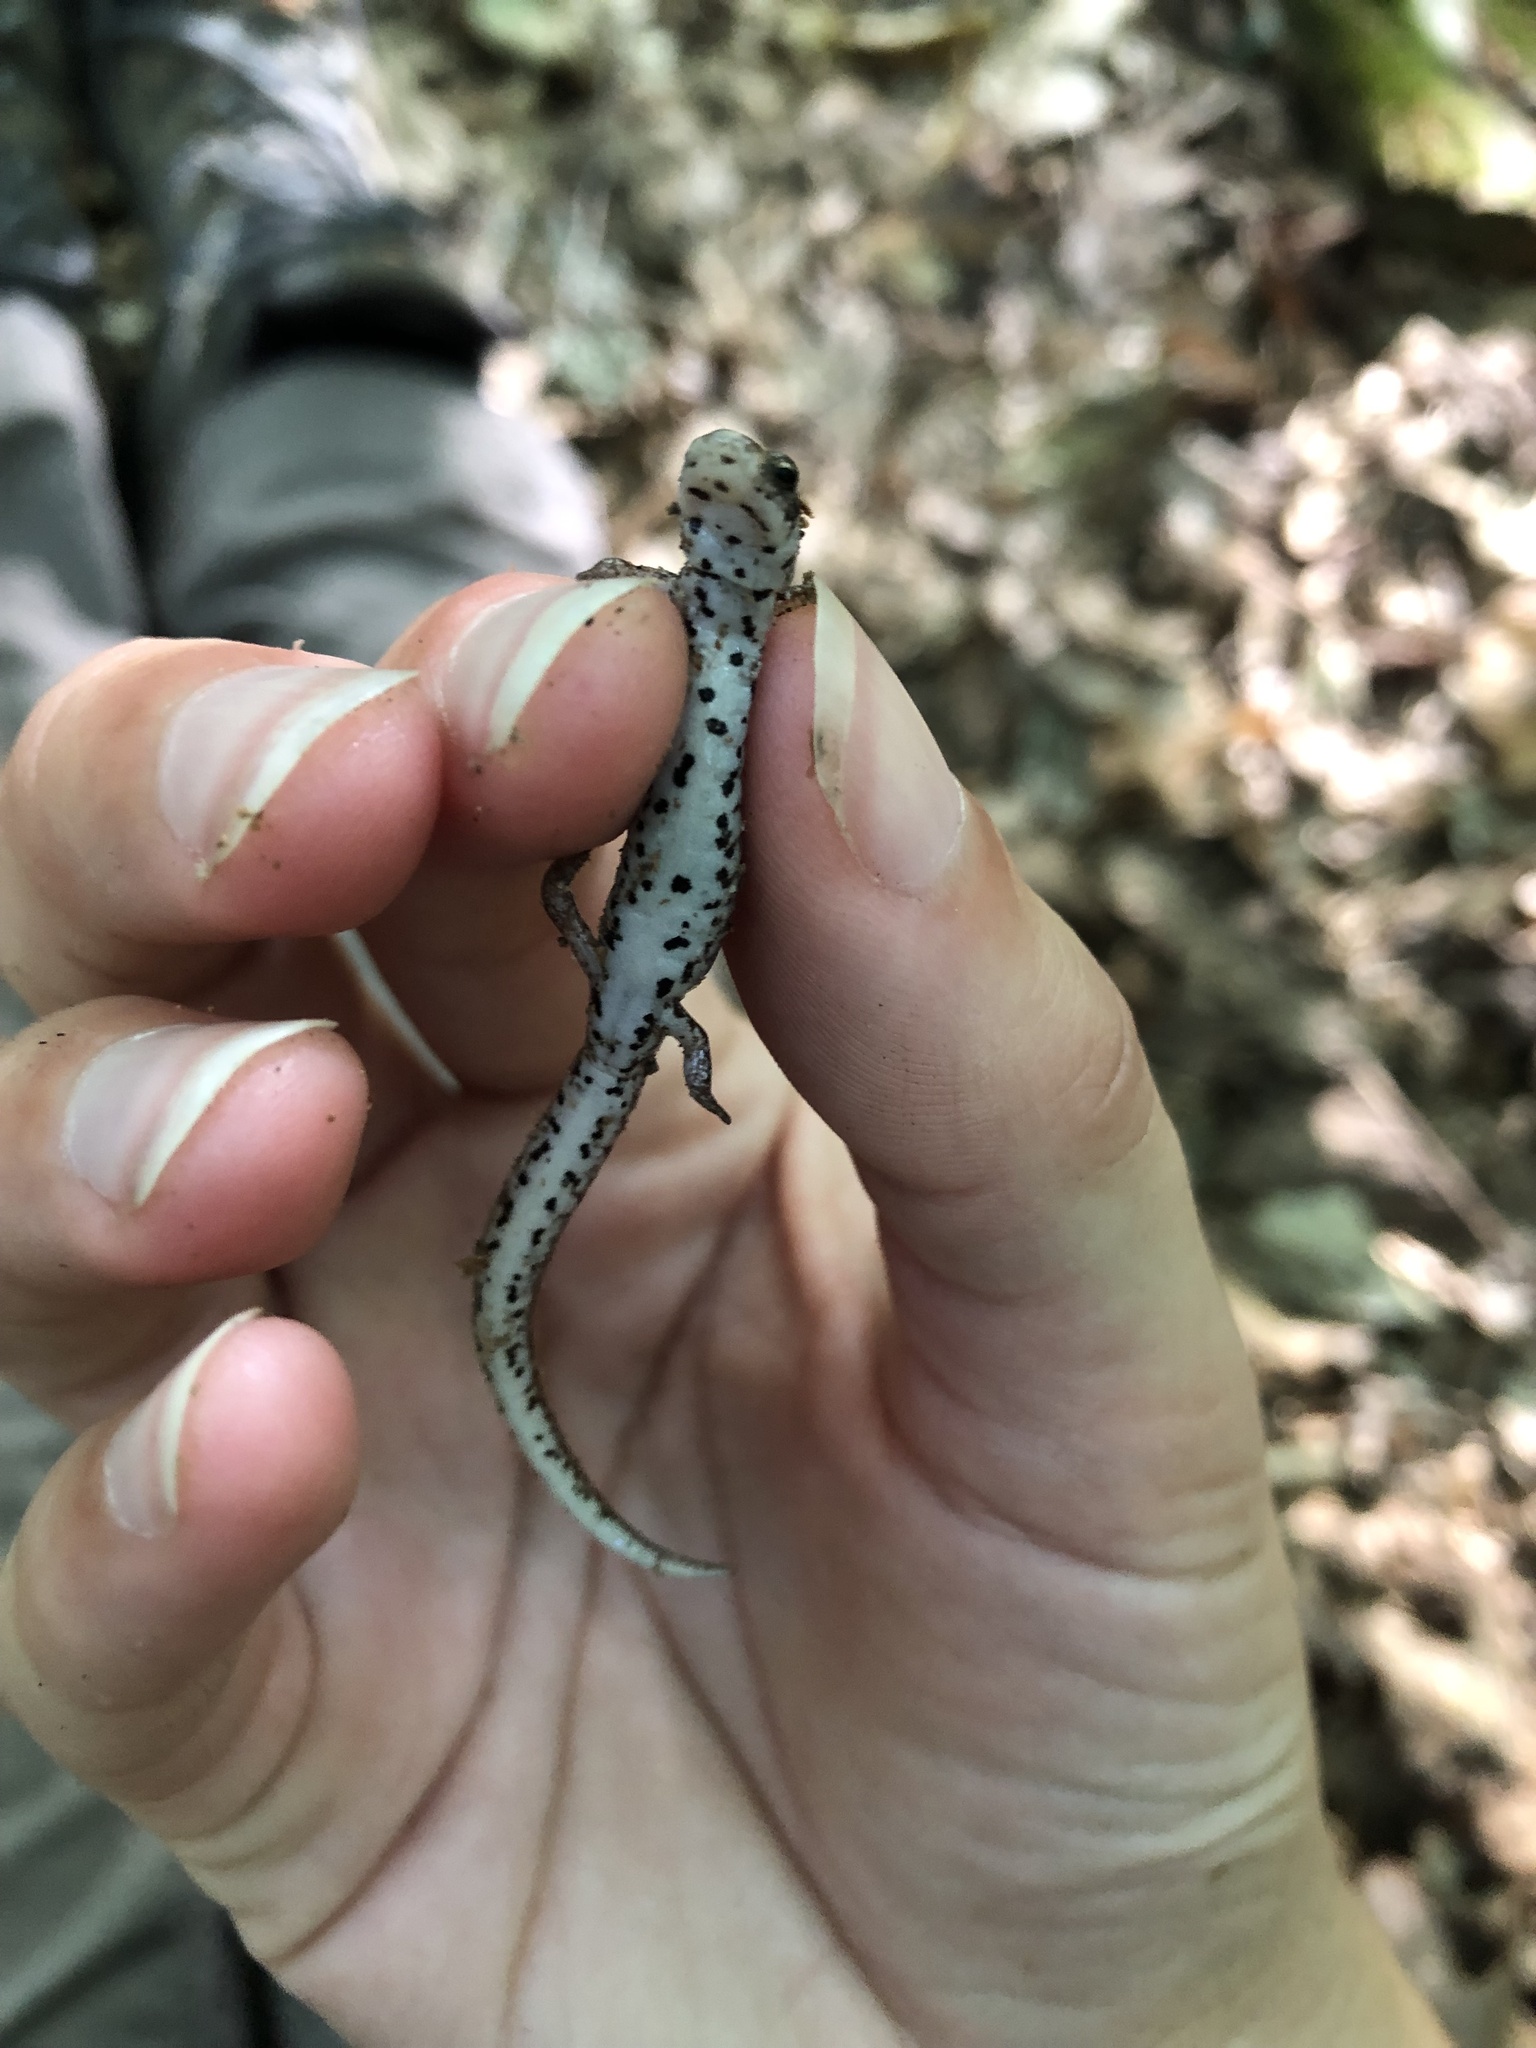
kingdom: Animalia
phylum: Chordata
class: Amphibia
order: Caudata
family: Plethodontidae
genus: Hemidactylium
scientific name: Hemidactylium scutatum
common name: Four-toed salamander
